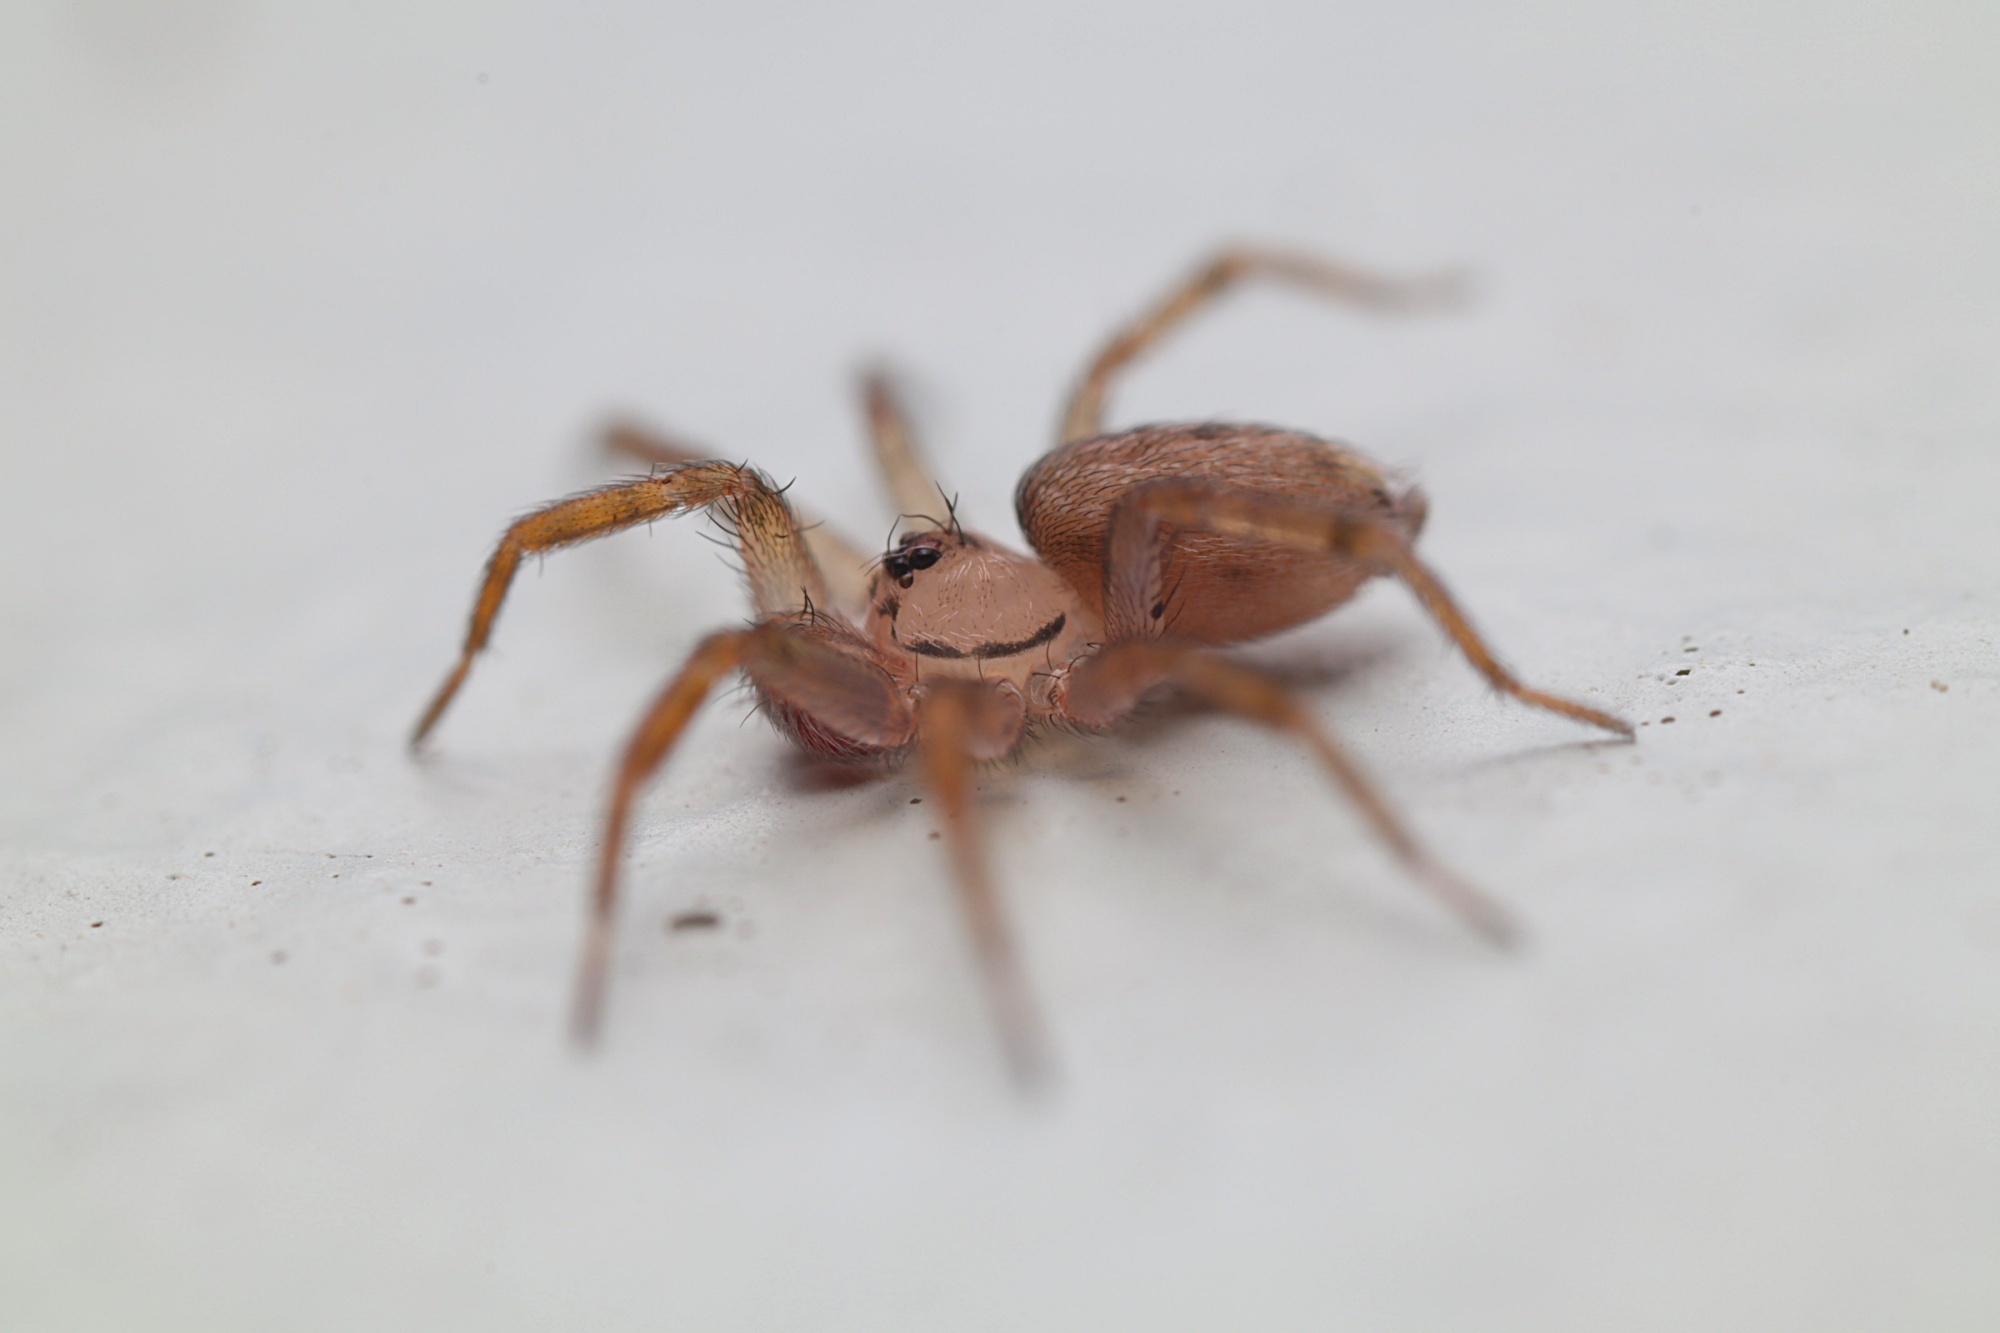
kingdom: Animalia
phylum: Arthropoda
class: Arachnida
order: Araneae
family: Oecobiidae
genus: Oecobius
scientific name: Oecobius navus
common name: Flatmesh weaver
